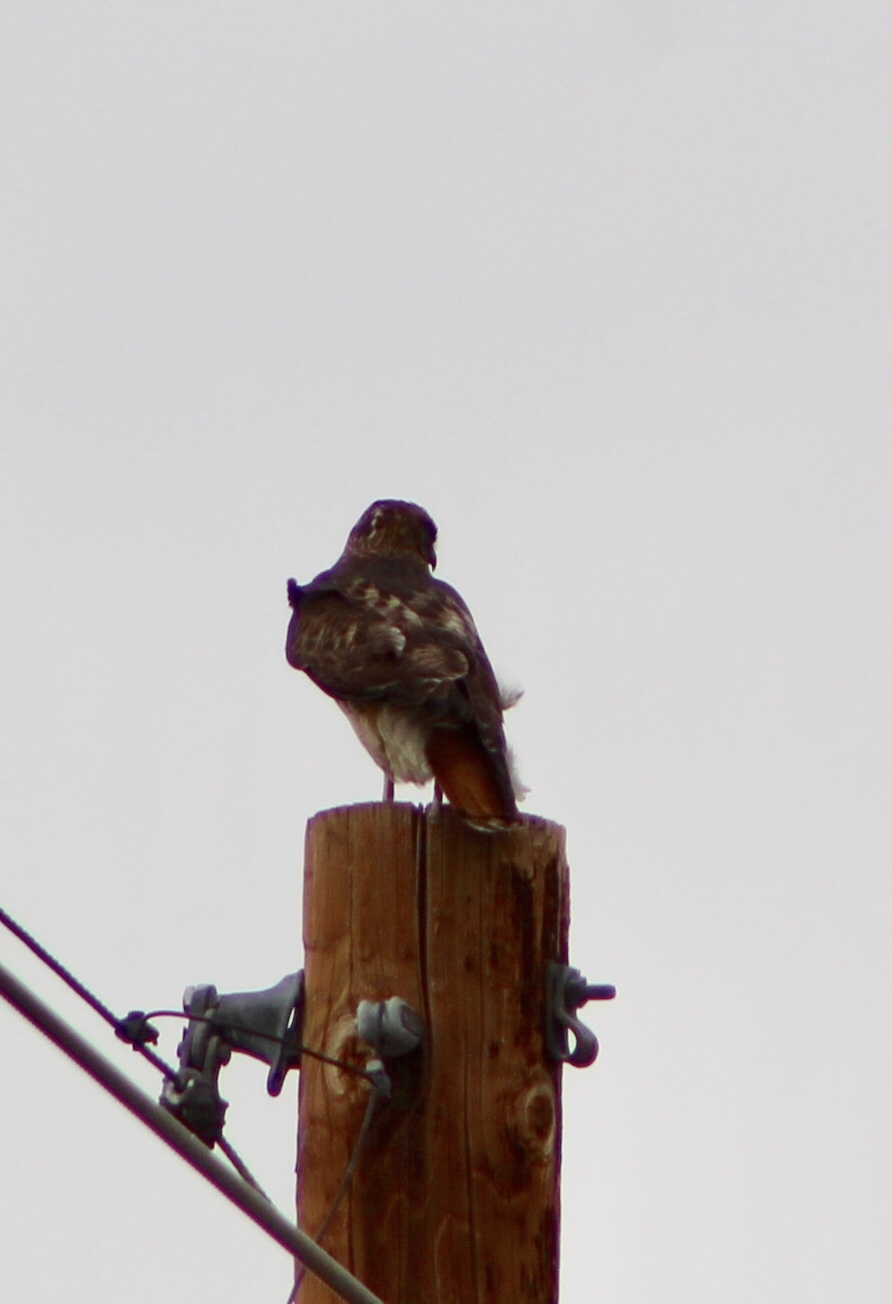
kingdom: Animalia
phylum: Chordata
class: Aves
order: Accipitriformes
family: Accipitridae
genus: Buteo
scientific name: Buteo jamaicensis
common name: Red-tailed hawk
